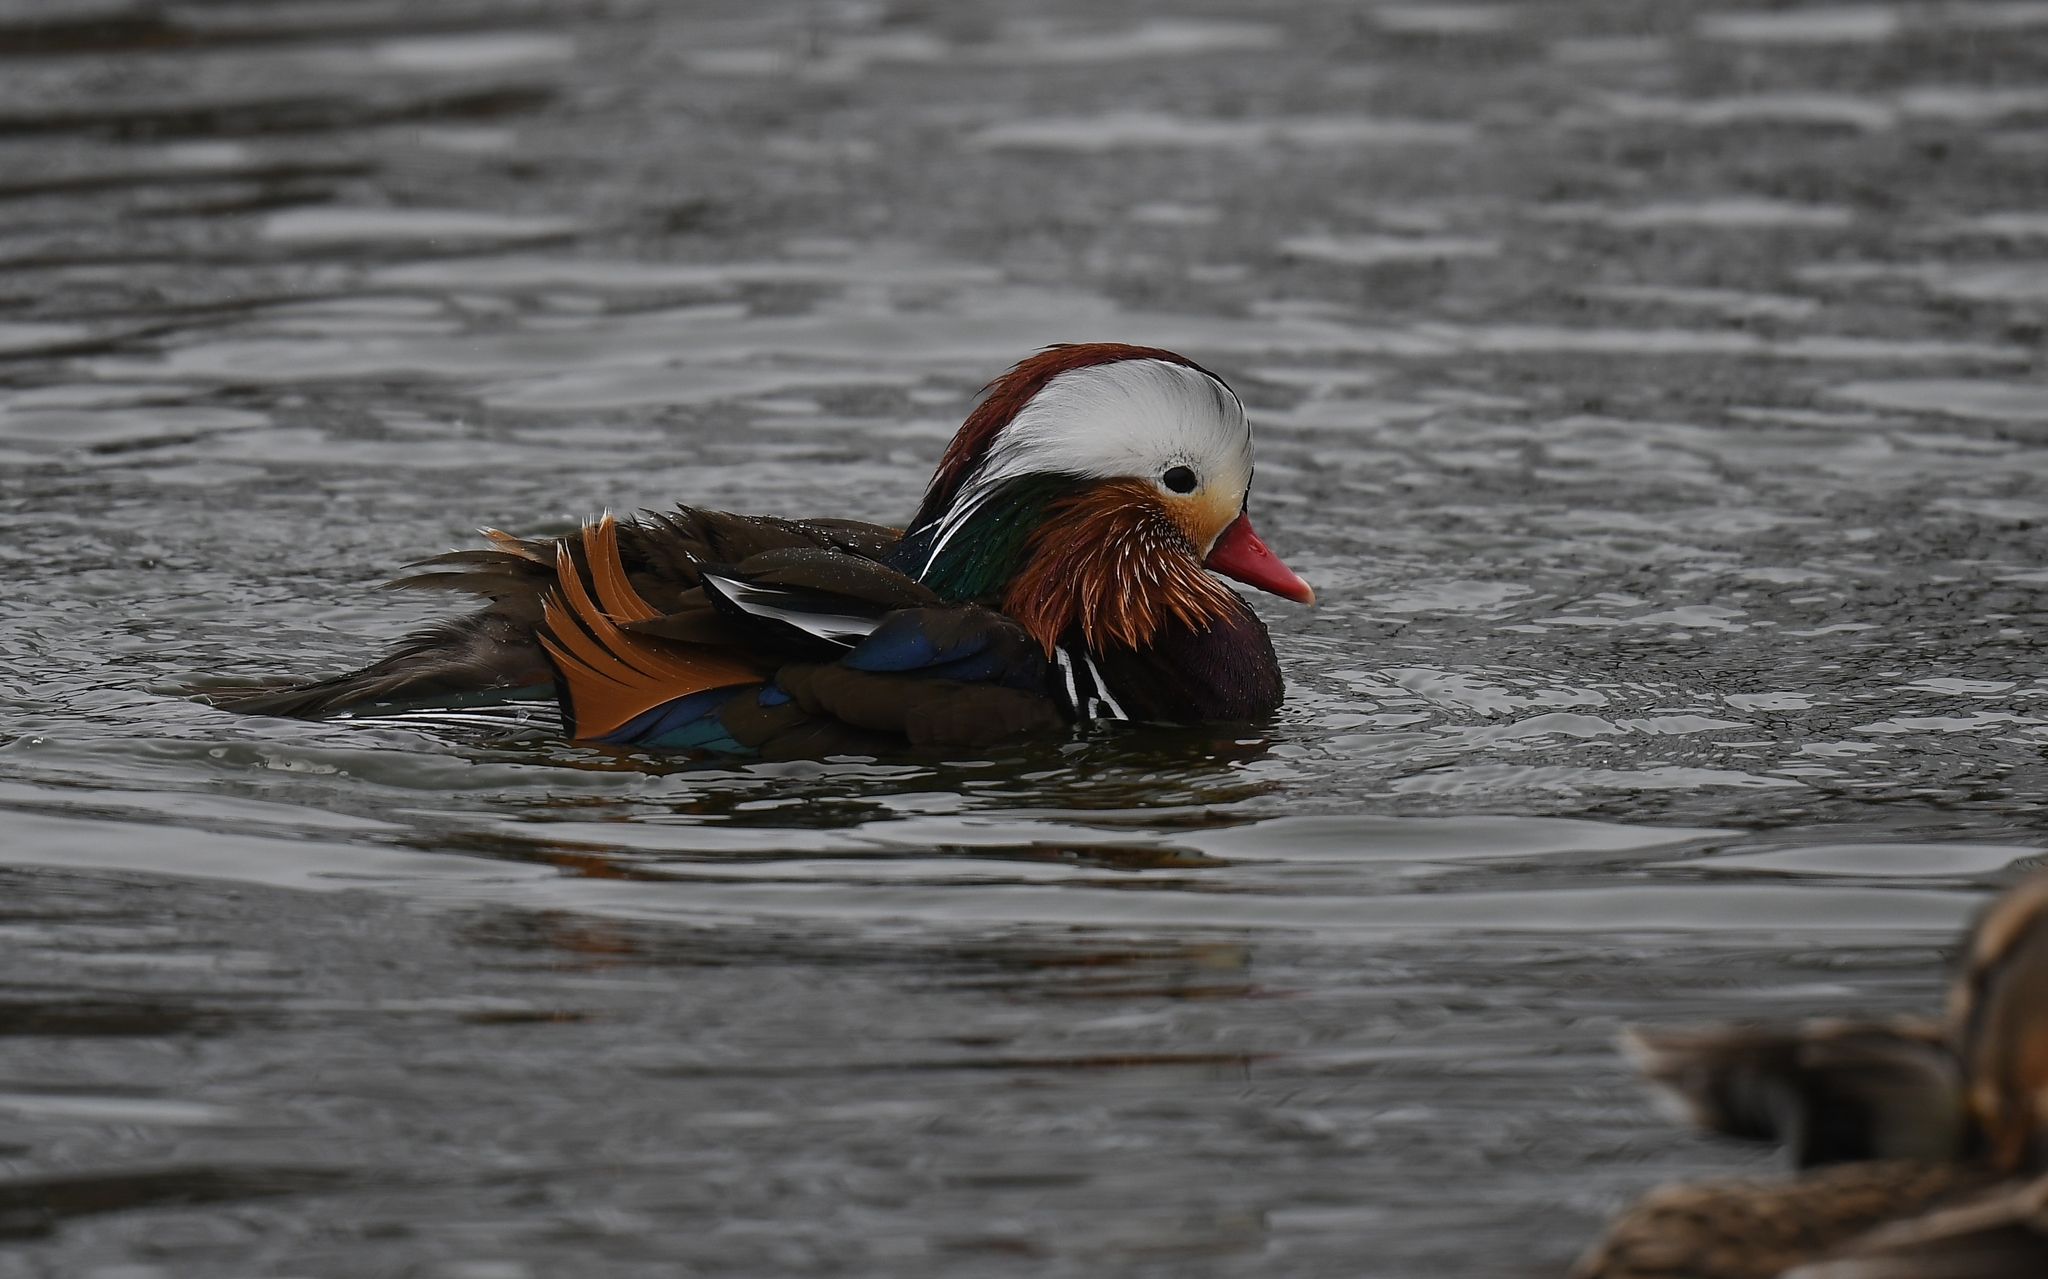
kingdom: Animalia
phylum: Chordata
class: Aves
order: Anseriformes
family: Anatidae
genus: Aix
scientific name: Aix galericulata
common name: Mandarin duck
